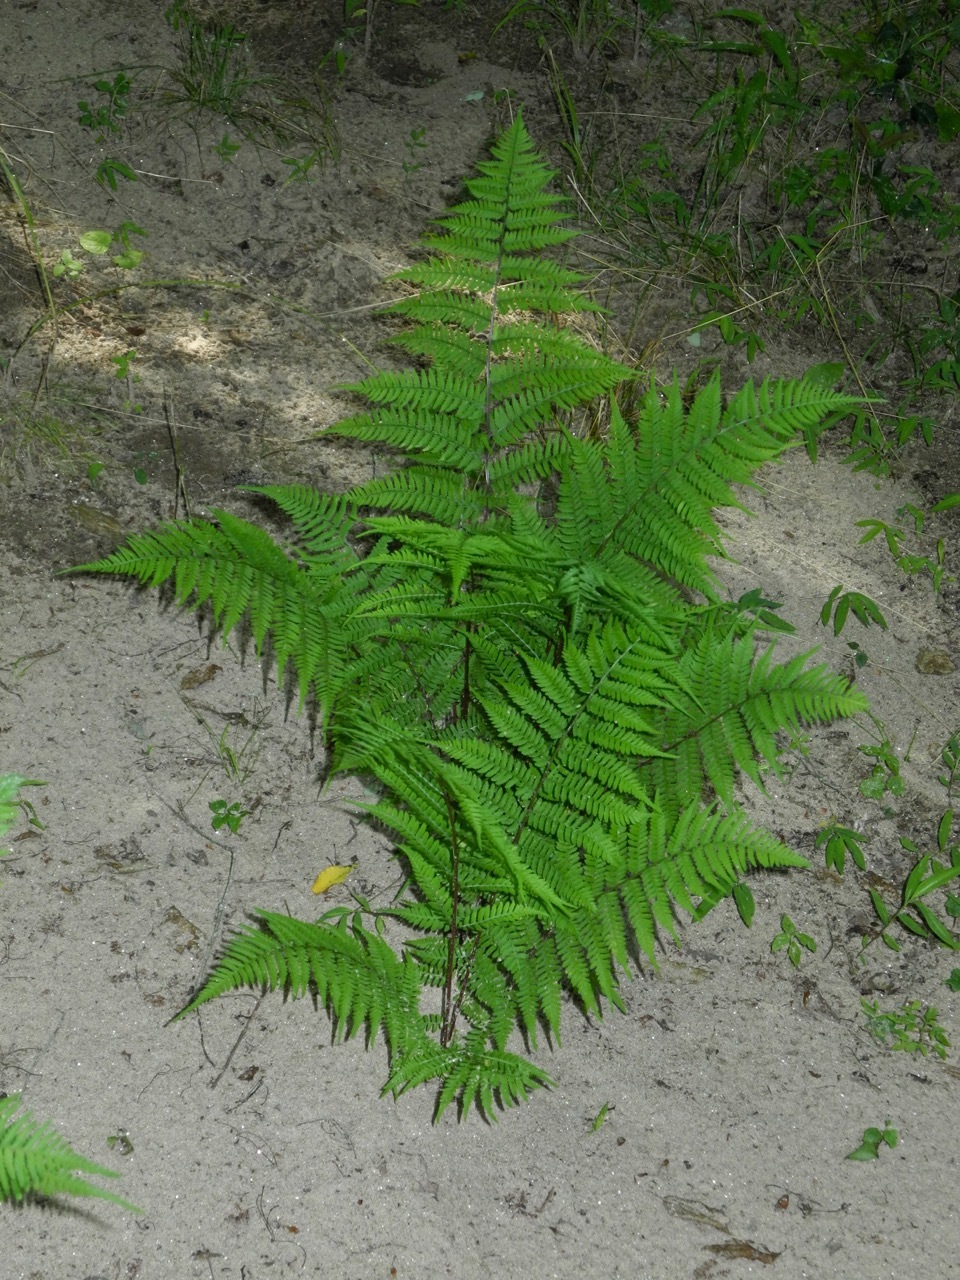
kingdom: Plantae
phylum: Tracheophyta
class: Polypodiopsida
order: Polypodiales
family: Athyriaceae
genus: Athyrium
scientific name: Athyrium asplenioides
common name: Southern lady fern
